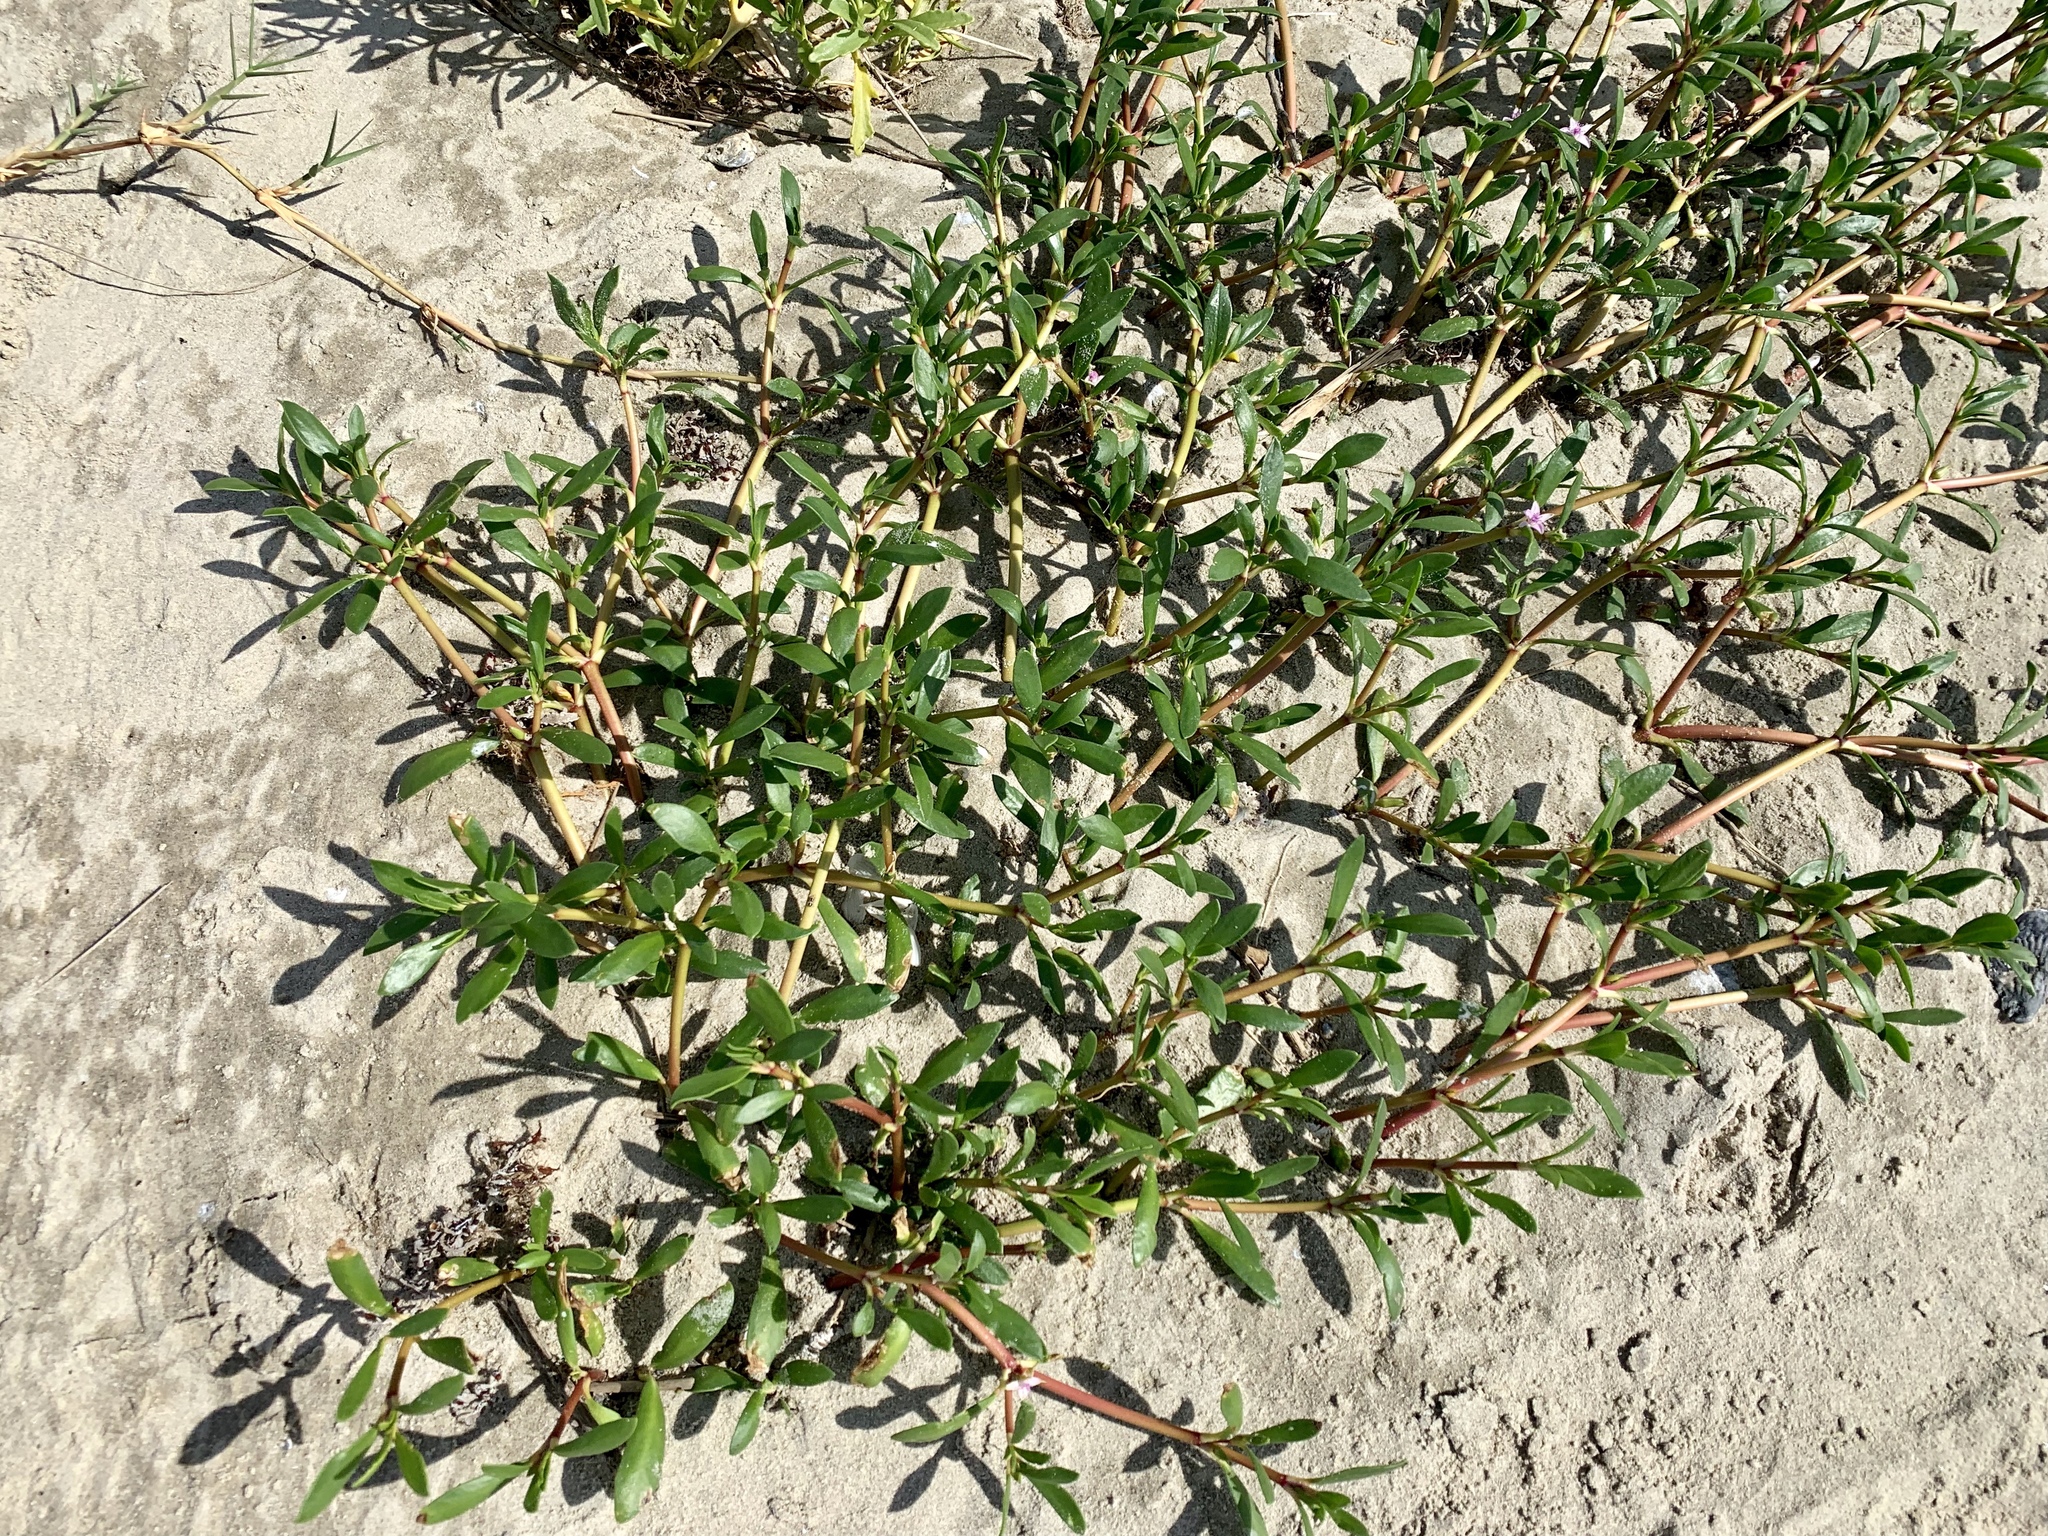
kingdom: Plantae
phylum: Tracheophyta
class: Magnoliopsida
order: Caryophyllales
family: Aizoaceae
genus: Sesuvium
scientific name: Sesuvium portulacastrum
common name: Sea-purslane
